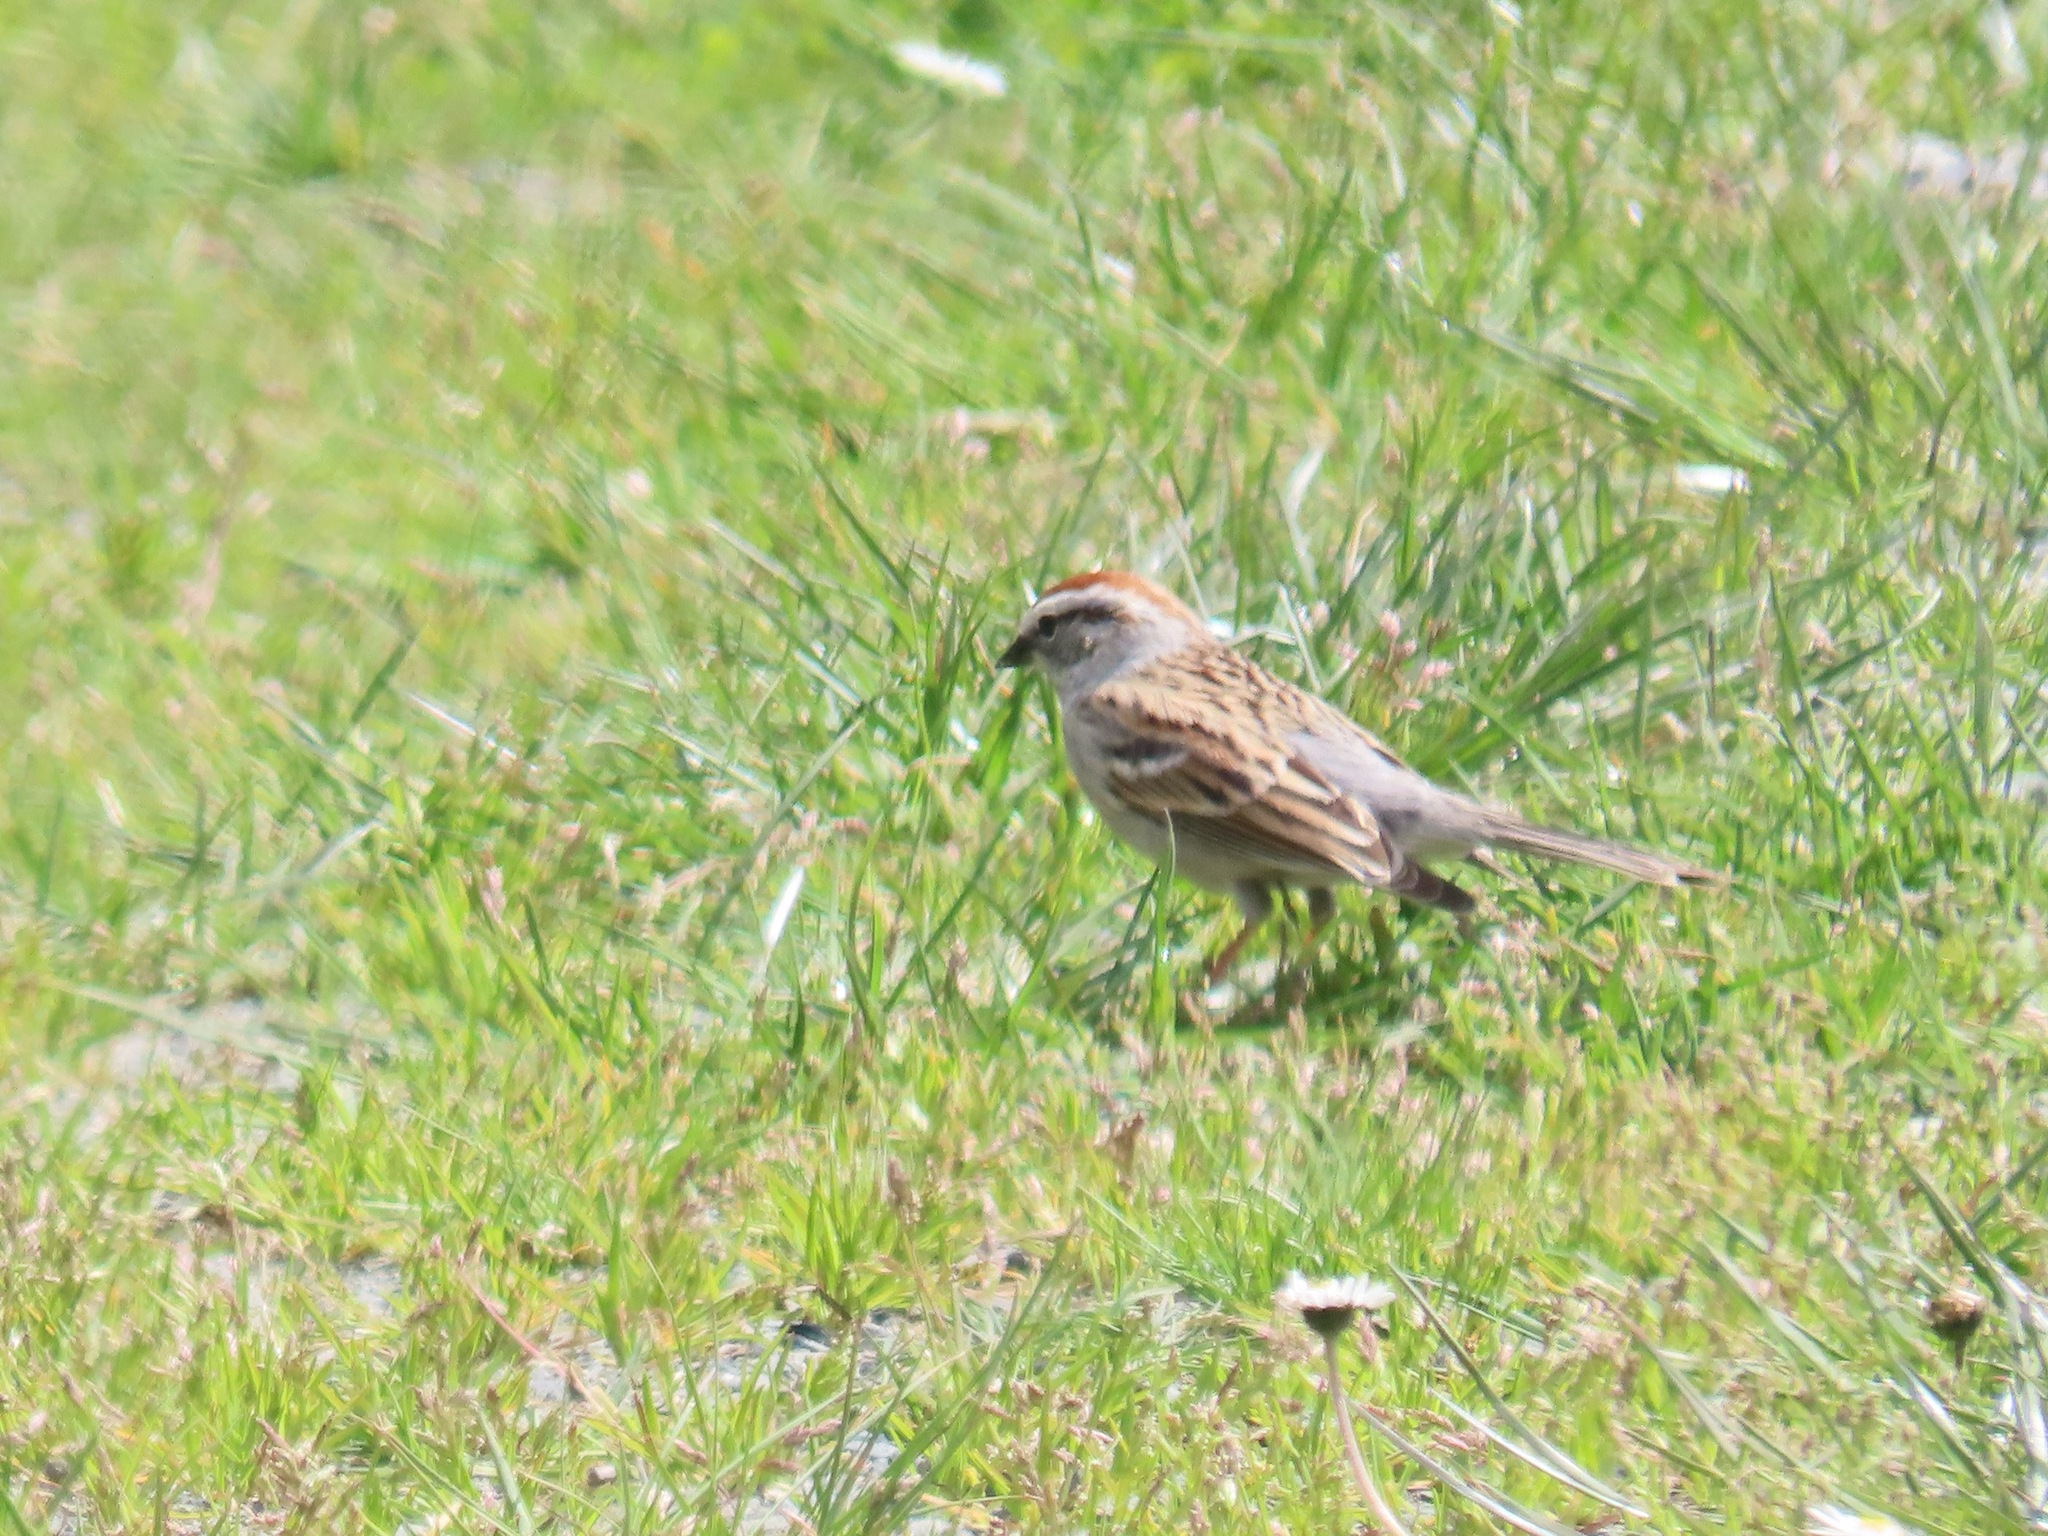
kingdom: Animalia
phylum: Chordata
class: Aves
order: Passeriformes
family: Passerellidae
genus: Spizella
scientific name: Spizella passerina
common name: Chipping sparrow
